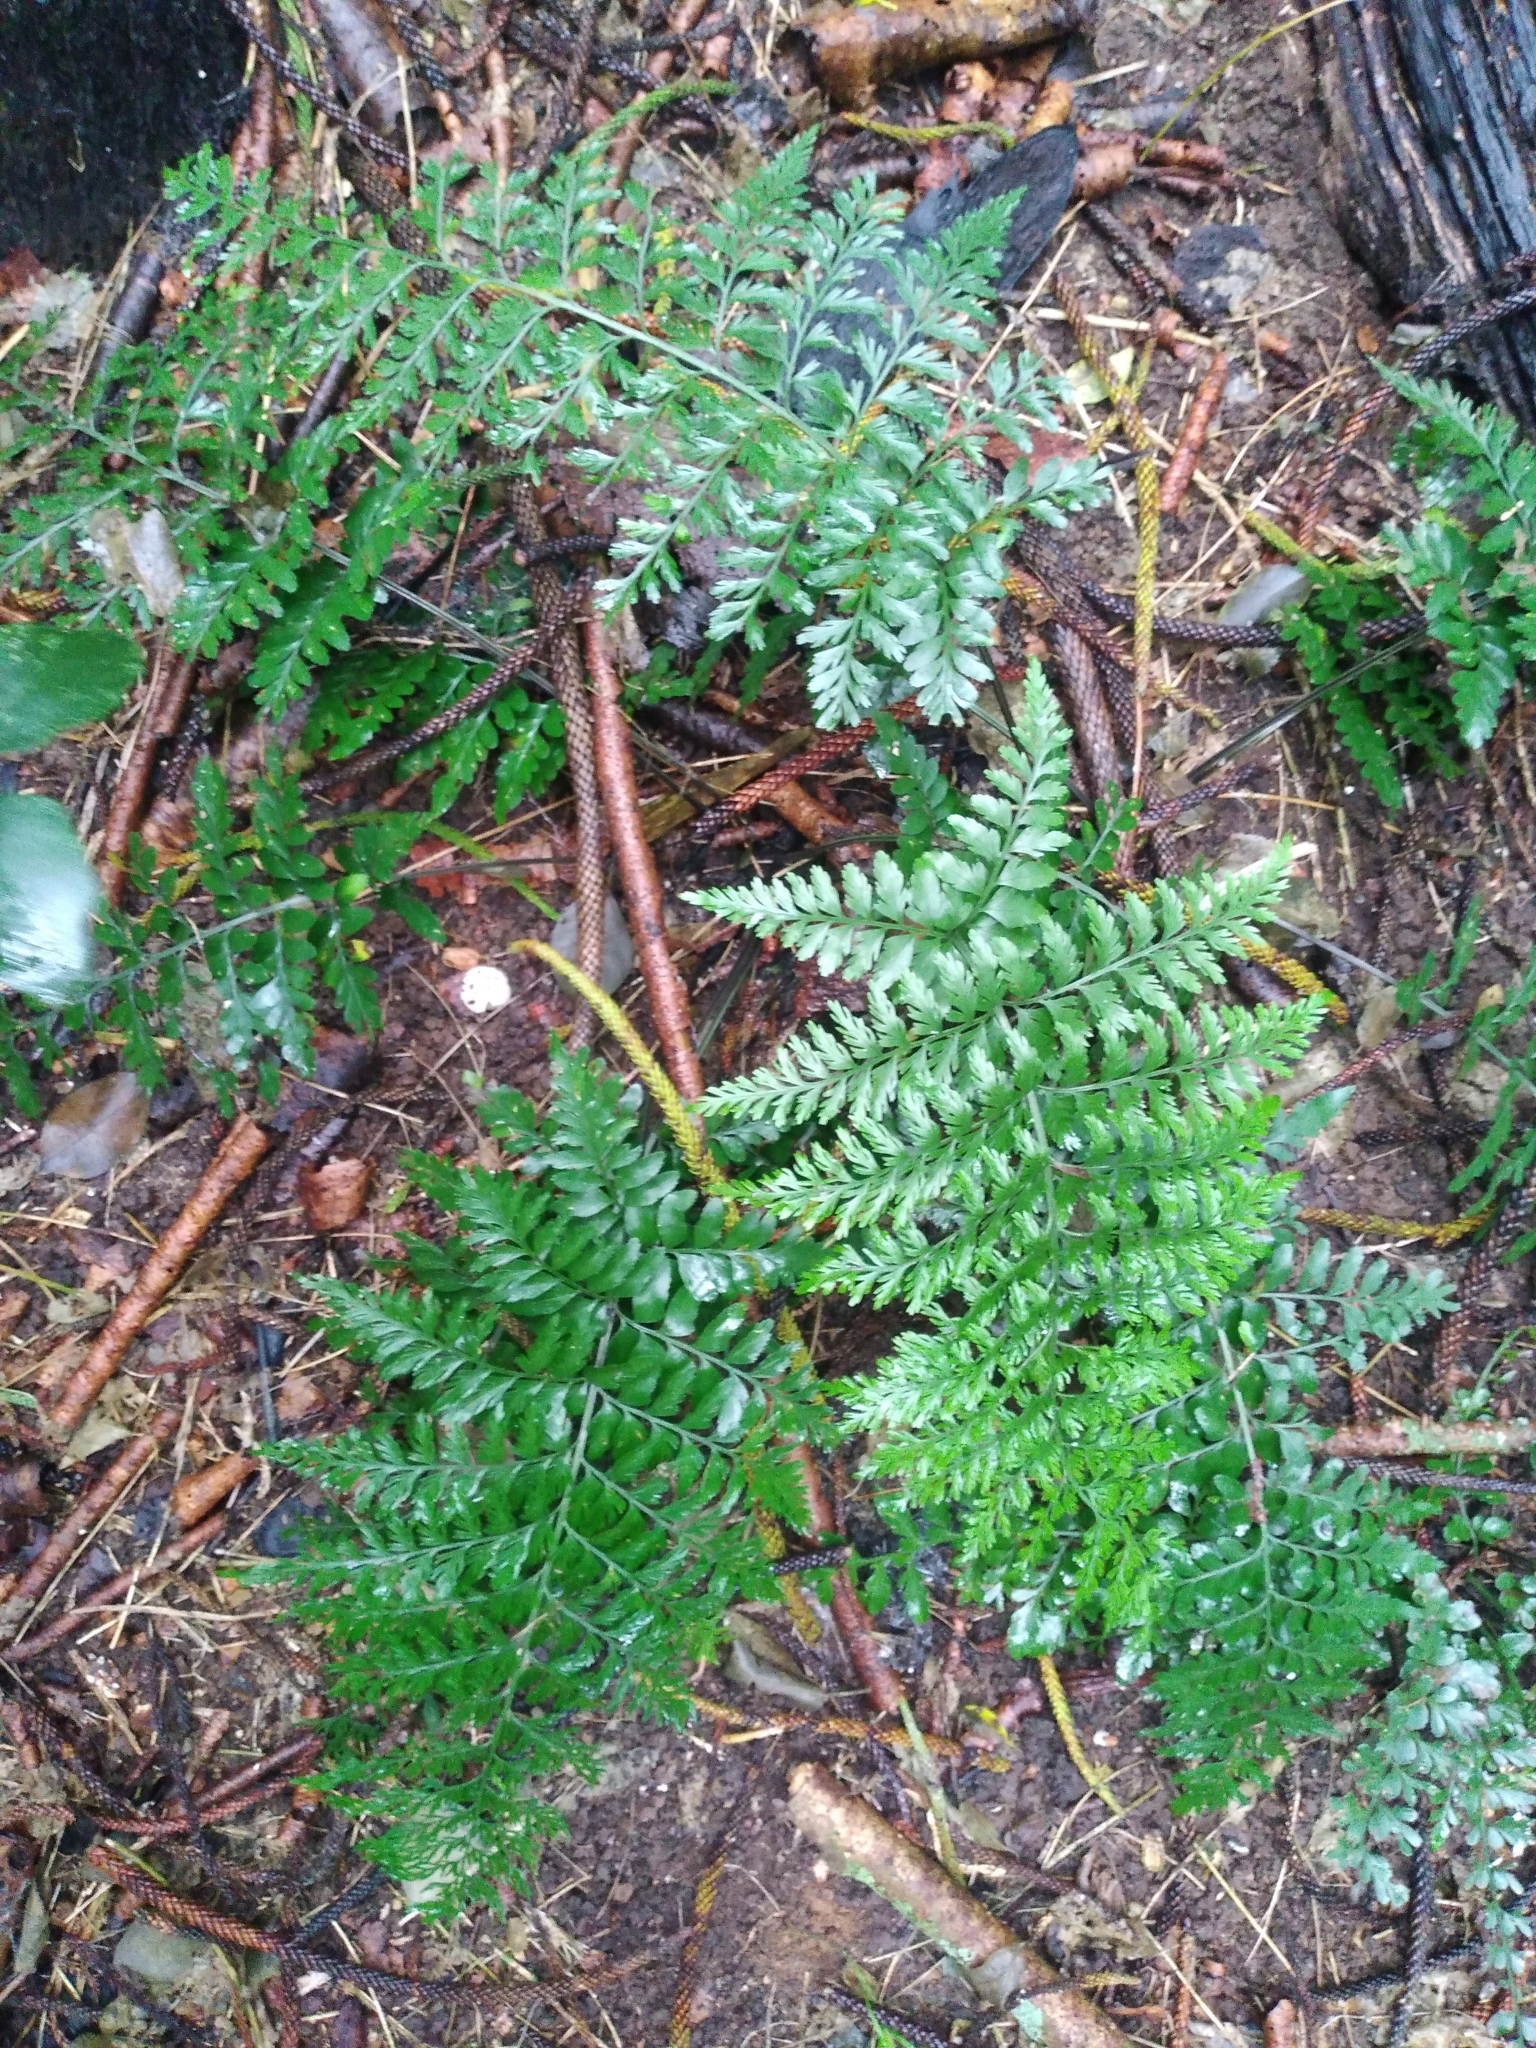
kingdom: Plantae
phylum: Tracheophyta
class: Polypodiopsida
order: Polypodiales
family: Aspleniaceae
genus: Asplenium
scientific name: Asplenium dimorphum
